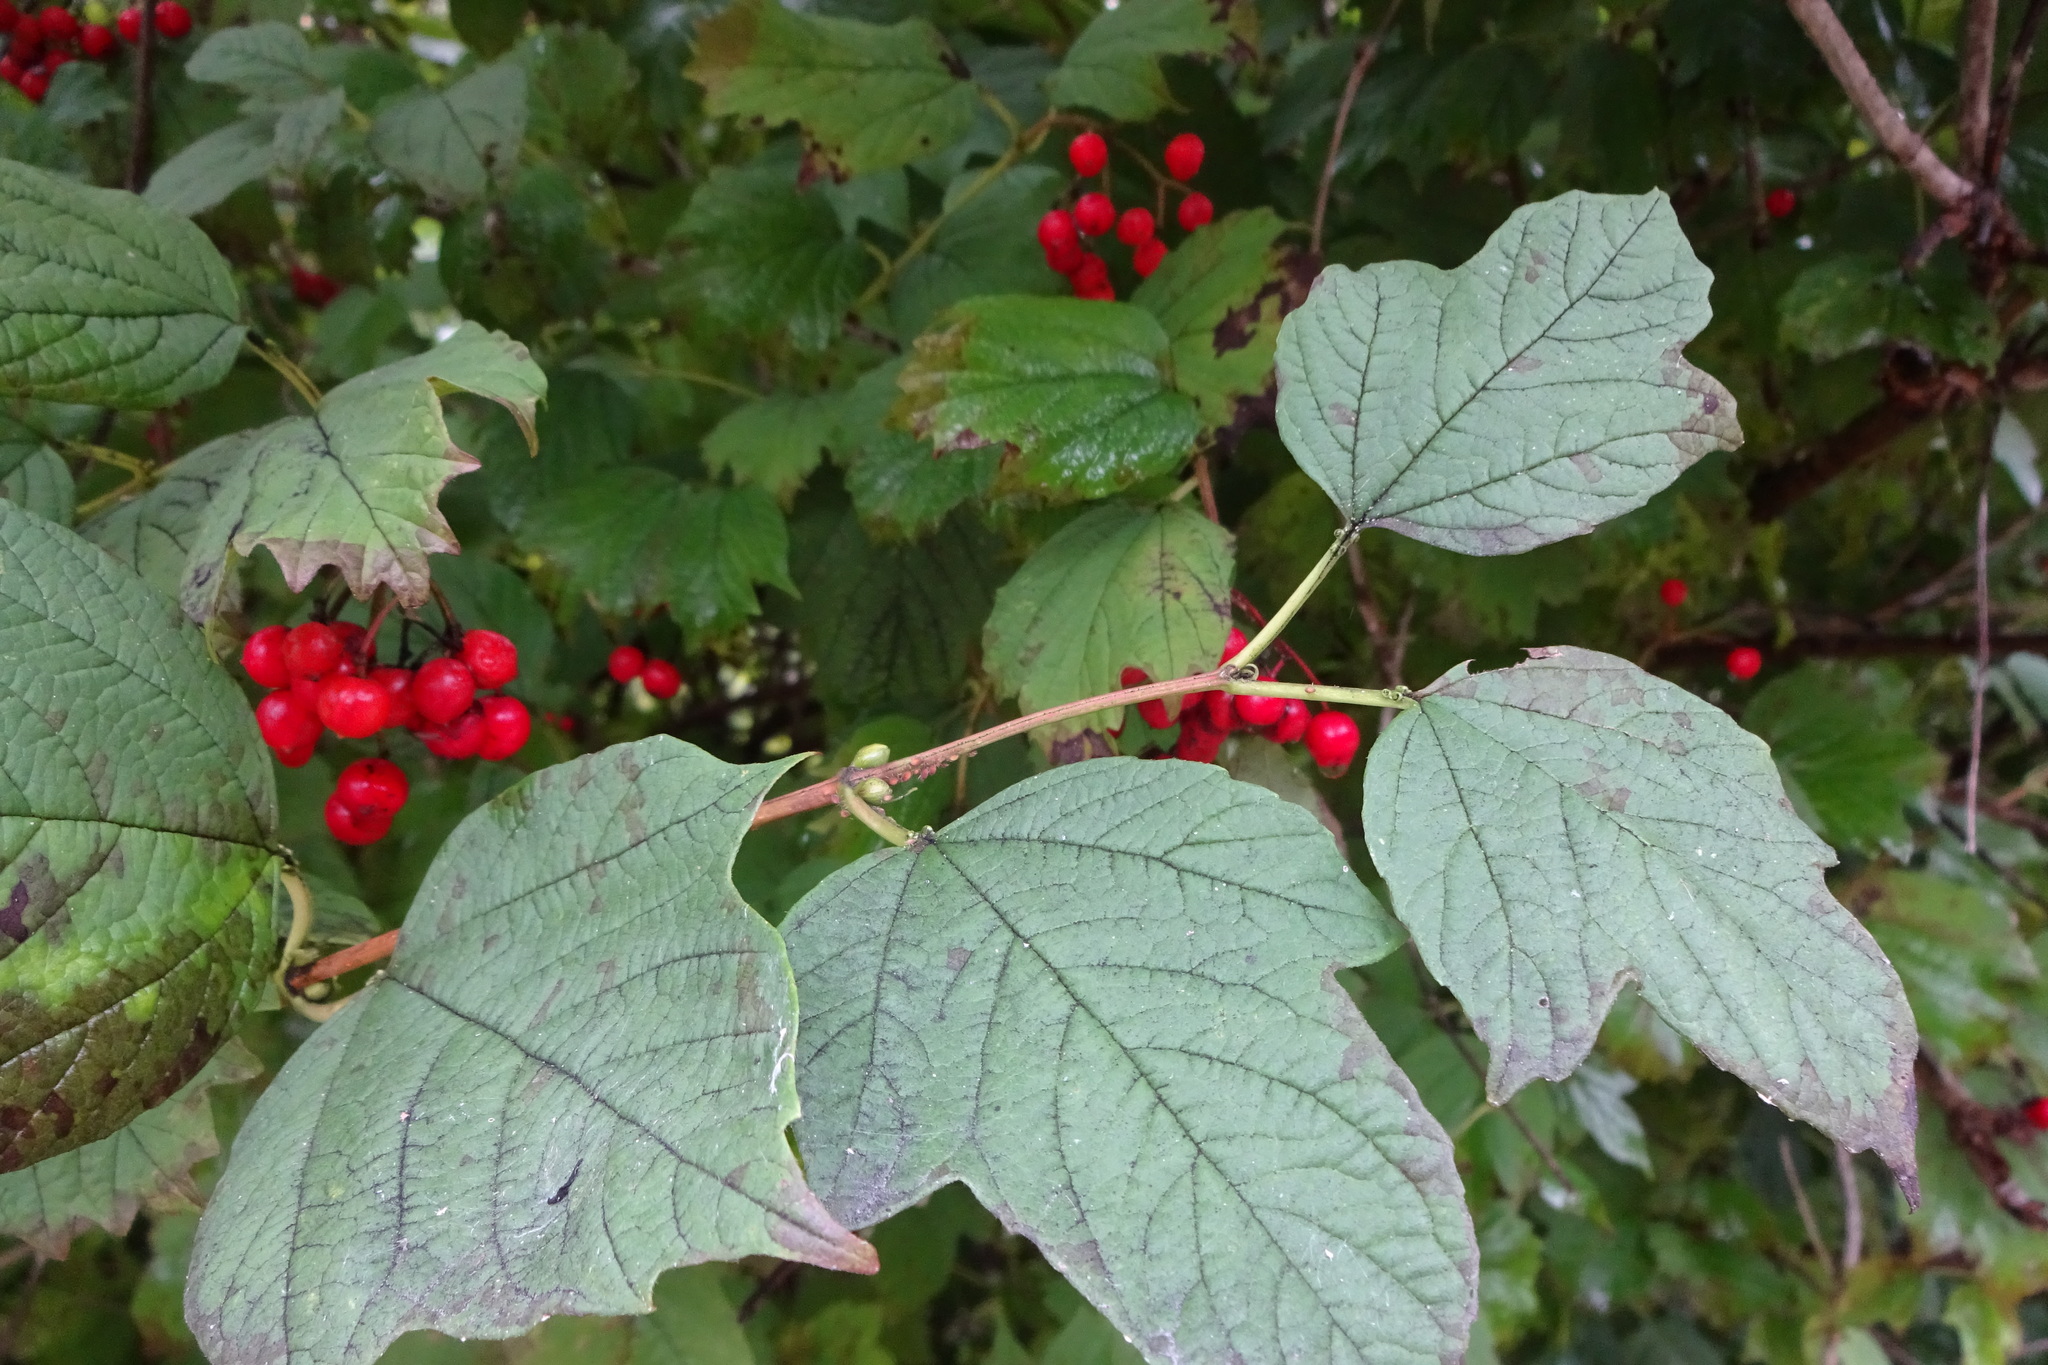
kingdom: Plantae
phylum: Tracheophyta
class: Magnoliopsida
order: Dipsacales
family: Viburnaceae
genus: Viburnum
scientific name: Viburnum opulus
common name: Guelder-rose
